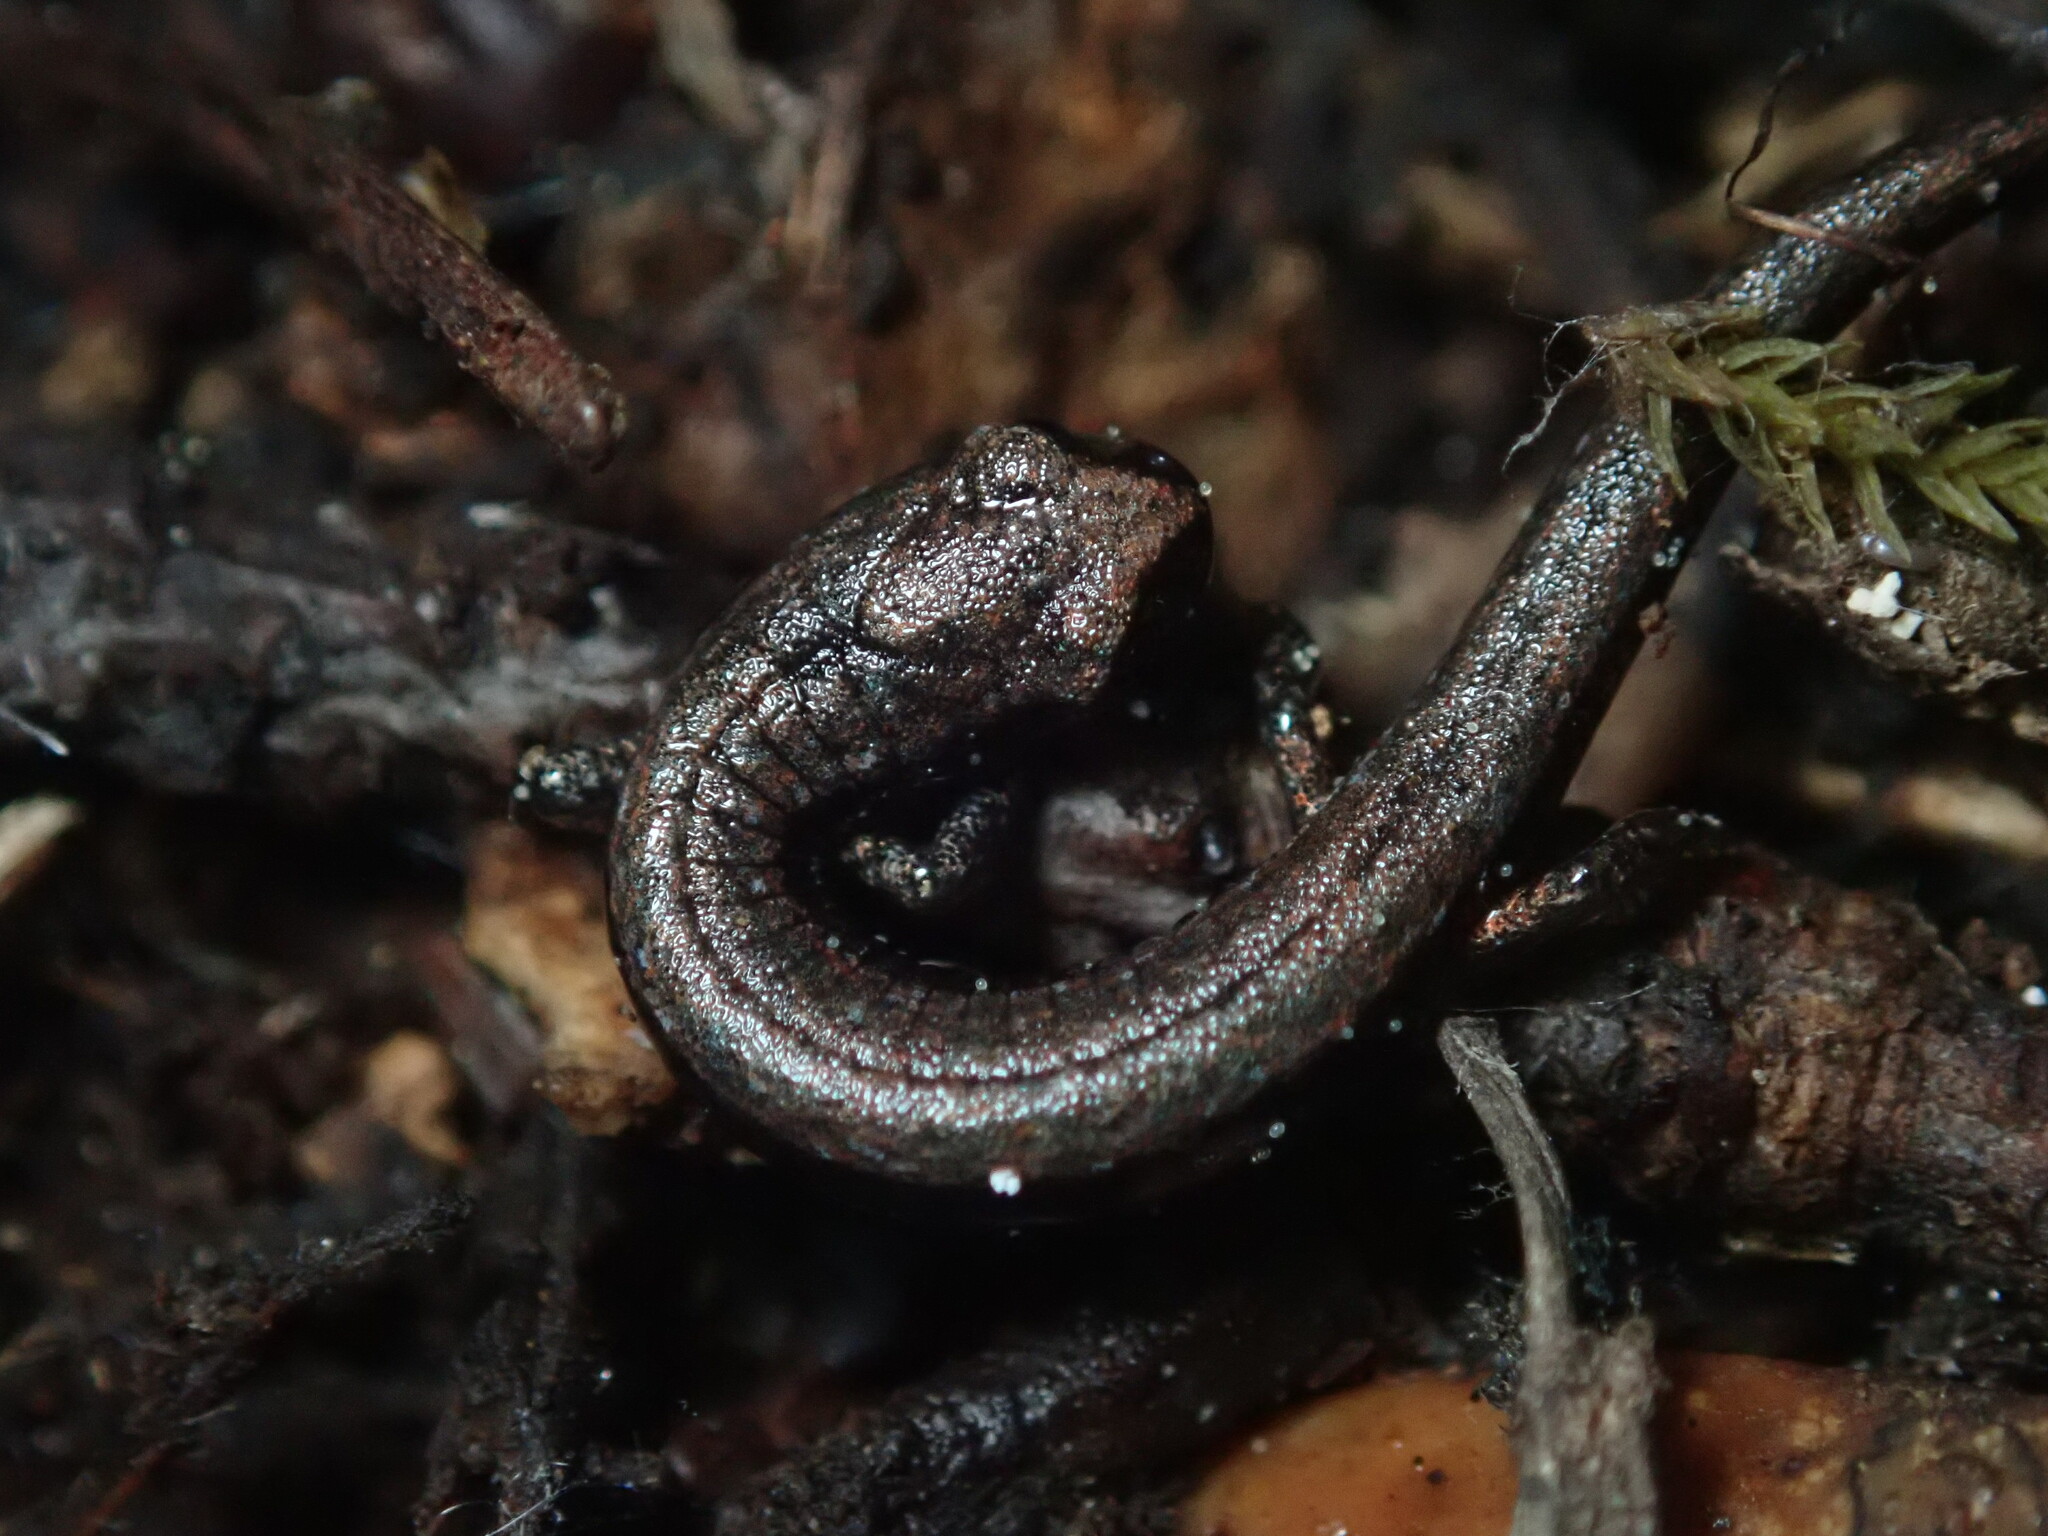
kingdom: Animalia
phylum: Chordata
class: Amphibia
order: Caudata
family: Plethodontidae
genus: Batrachoseps
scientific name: Batrachoseps attenuatus
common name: California slender salamander
